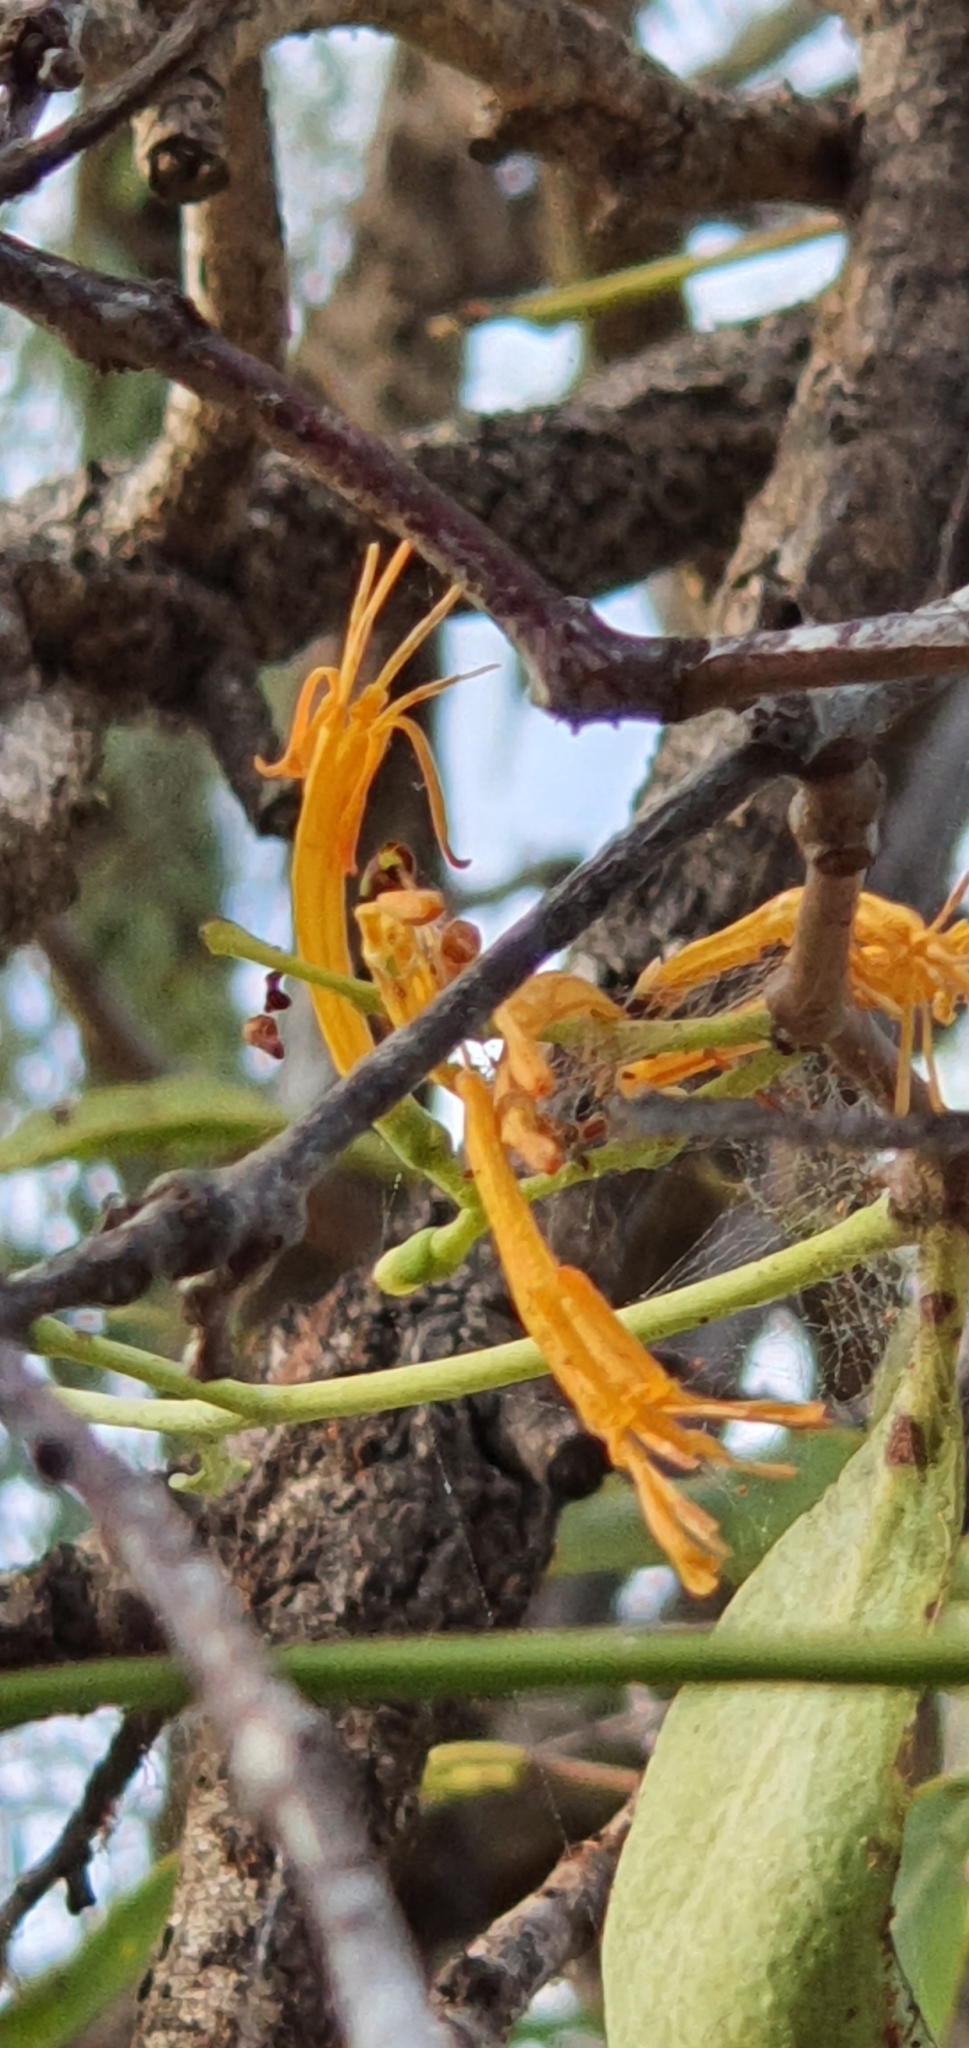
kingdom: Plantae
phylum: Tracheophyta
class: Magnoliopsida
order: Santalales
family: Loranthaceae
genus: Dendrophthoe
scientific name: Dendrophthoe glabrescens
